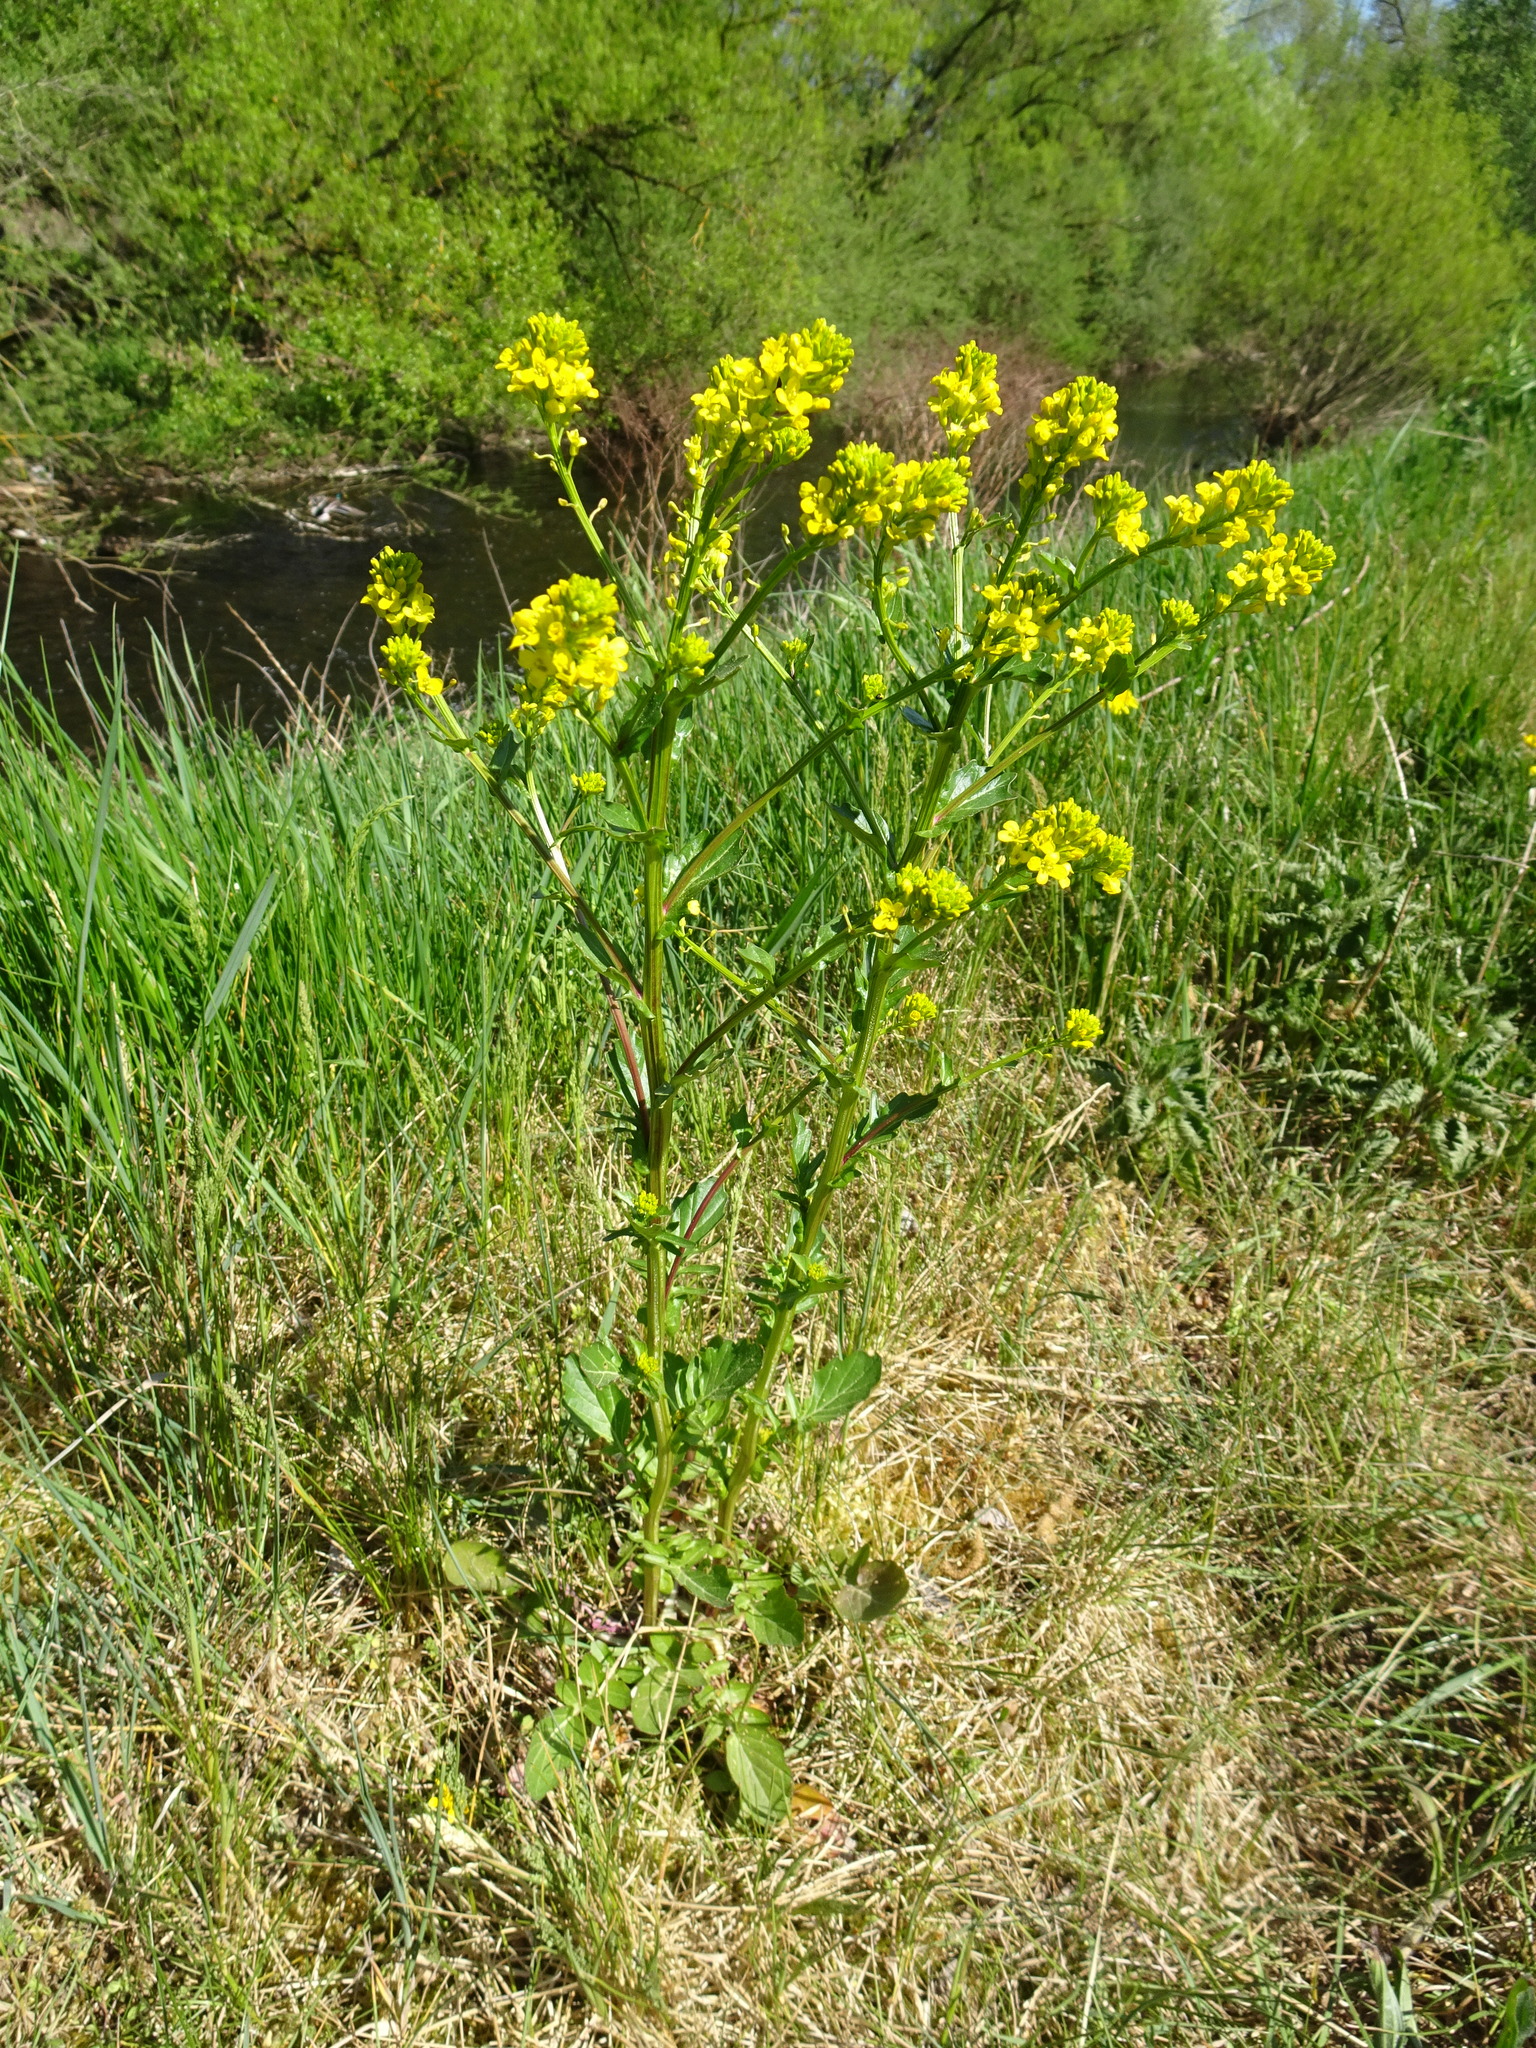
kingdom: Plantae
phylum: Tracheophyta
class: Magnoliopsida
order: Brassicales
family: Brassicaceae
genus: Barbarea
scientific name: Barbarea vulgaris
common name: Cressy-greens
